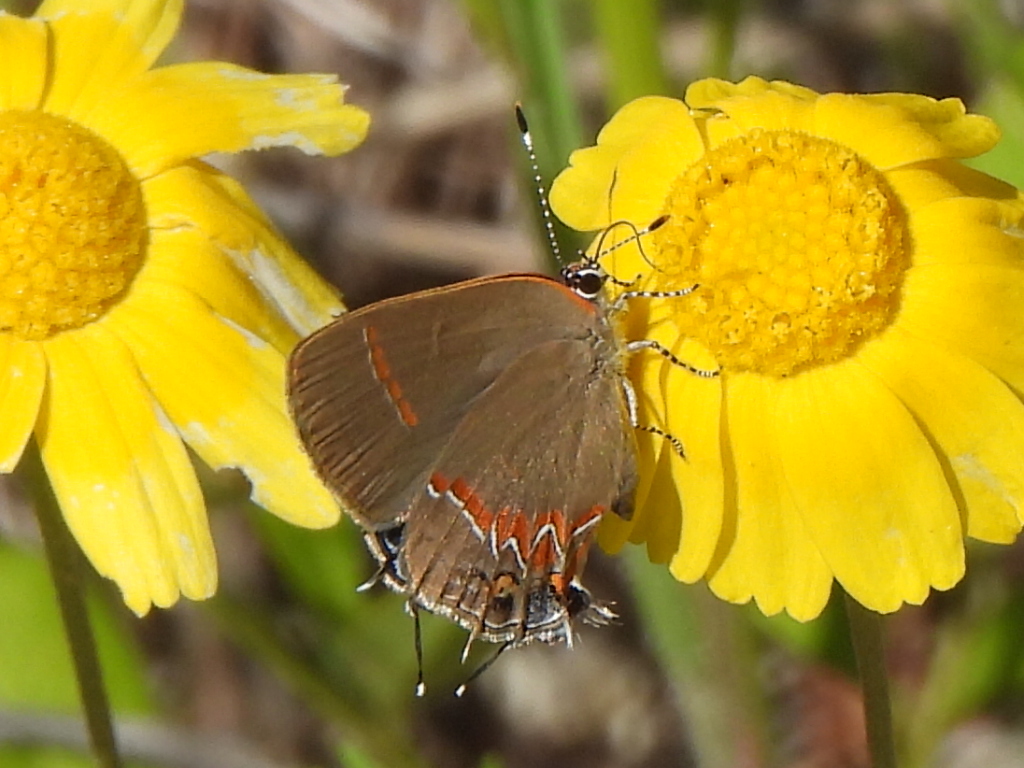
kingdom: Animalia
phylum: Arthropoda
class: Insecta
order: Lepidoptera
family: Lycaenidae
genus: Calycopis
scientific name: Calycopis cecrops
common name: Red-banded hairstreak
